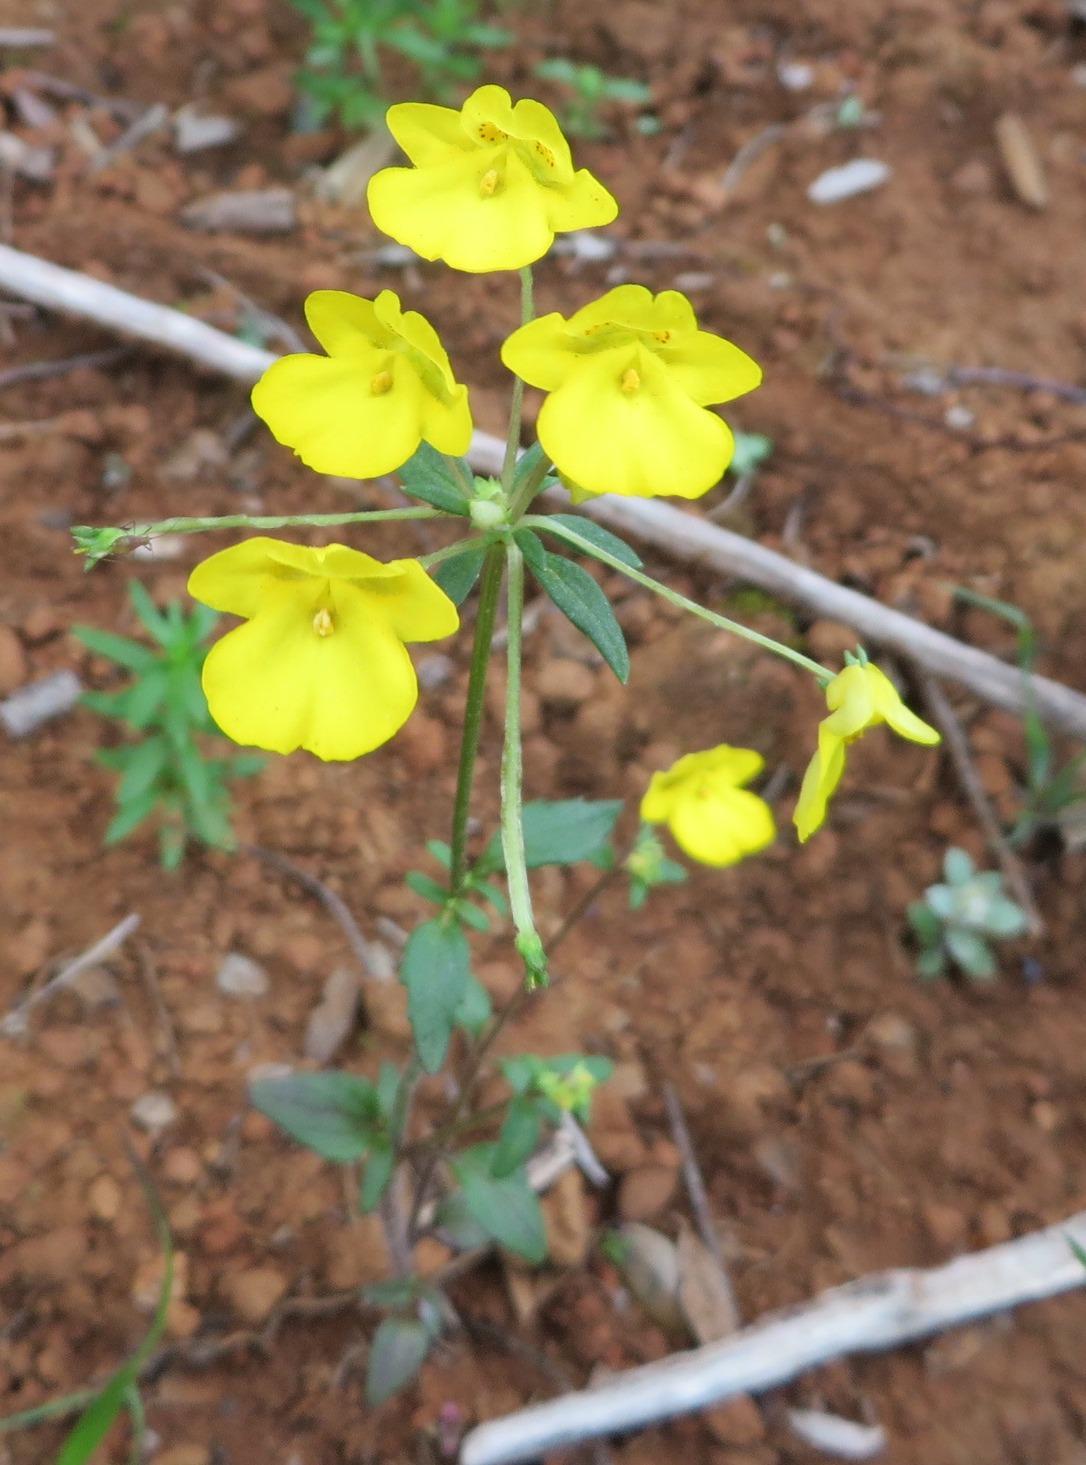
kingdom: Plantae
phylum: Tracheophyta
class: Magnoliopsida
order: Lamiales
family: Scrophulariaceae
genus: Hemimeris
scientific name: Hemimeris racemosa
